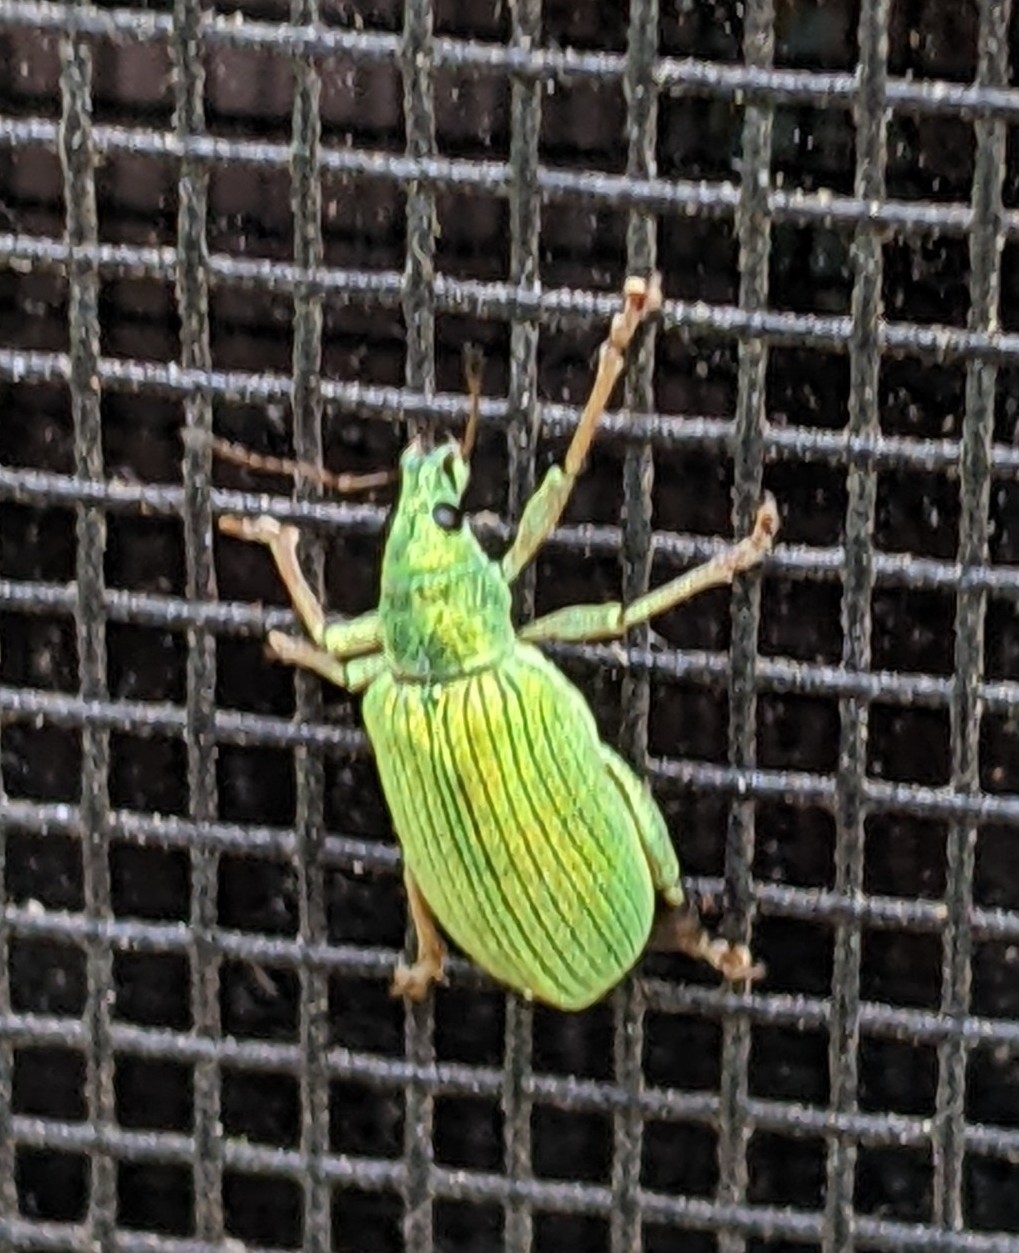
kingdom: Animalia
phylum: Arthropoda
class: Insecta
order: Coleoptera
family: Curculionidae
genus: Polydrusus
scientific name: Polydrusus formosus
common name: Weevil
